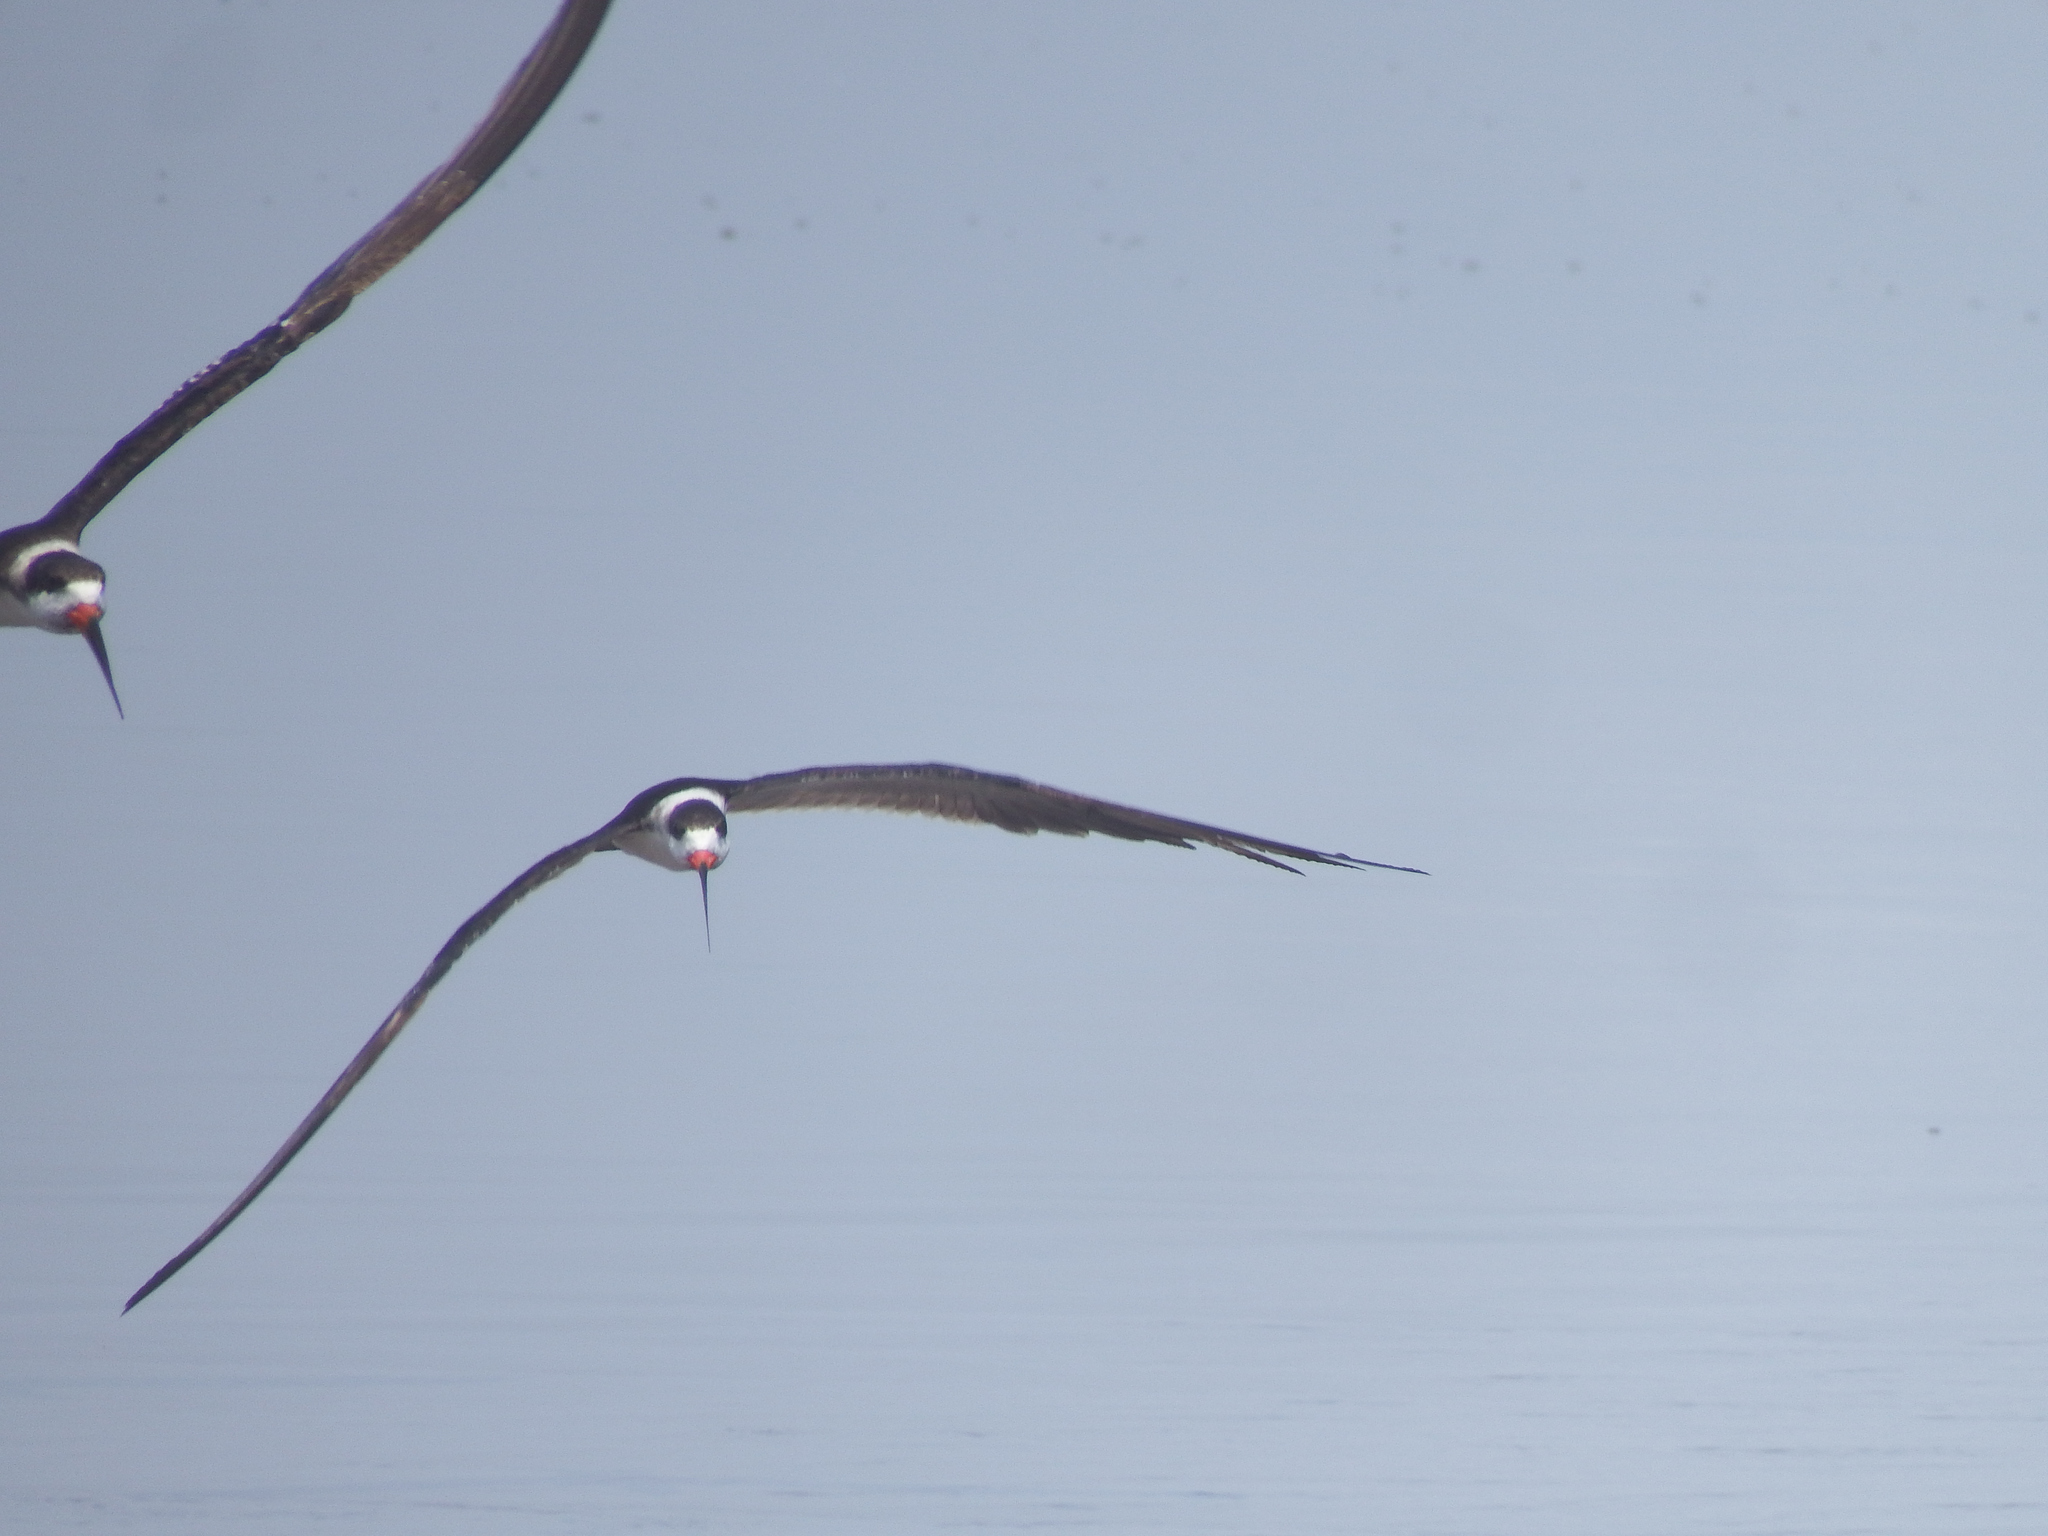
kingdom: Animalia
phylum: Chordata
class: Aves
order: Charadriiformes
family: Laridae
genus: Rynchops
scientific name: Rynchops niger
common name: Black skimmer
